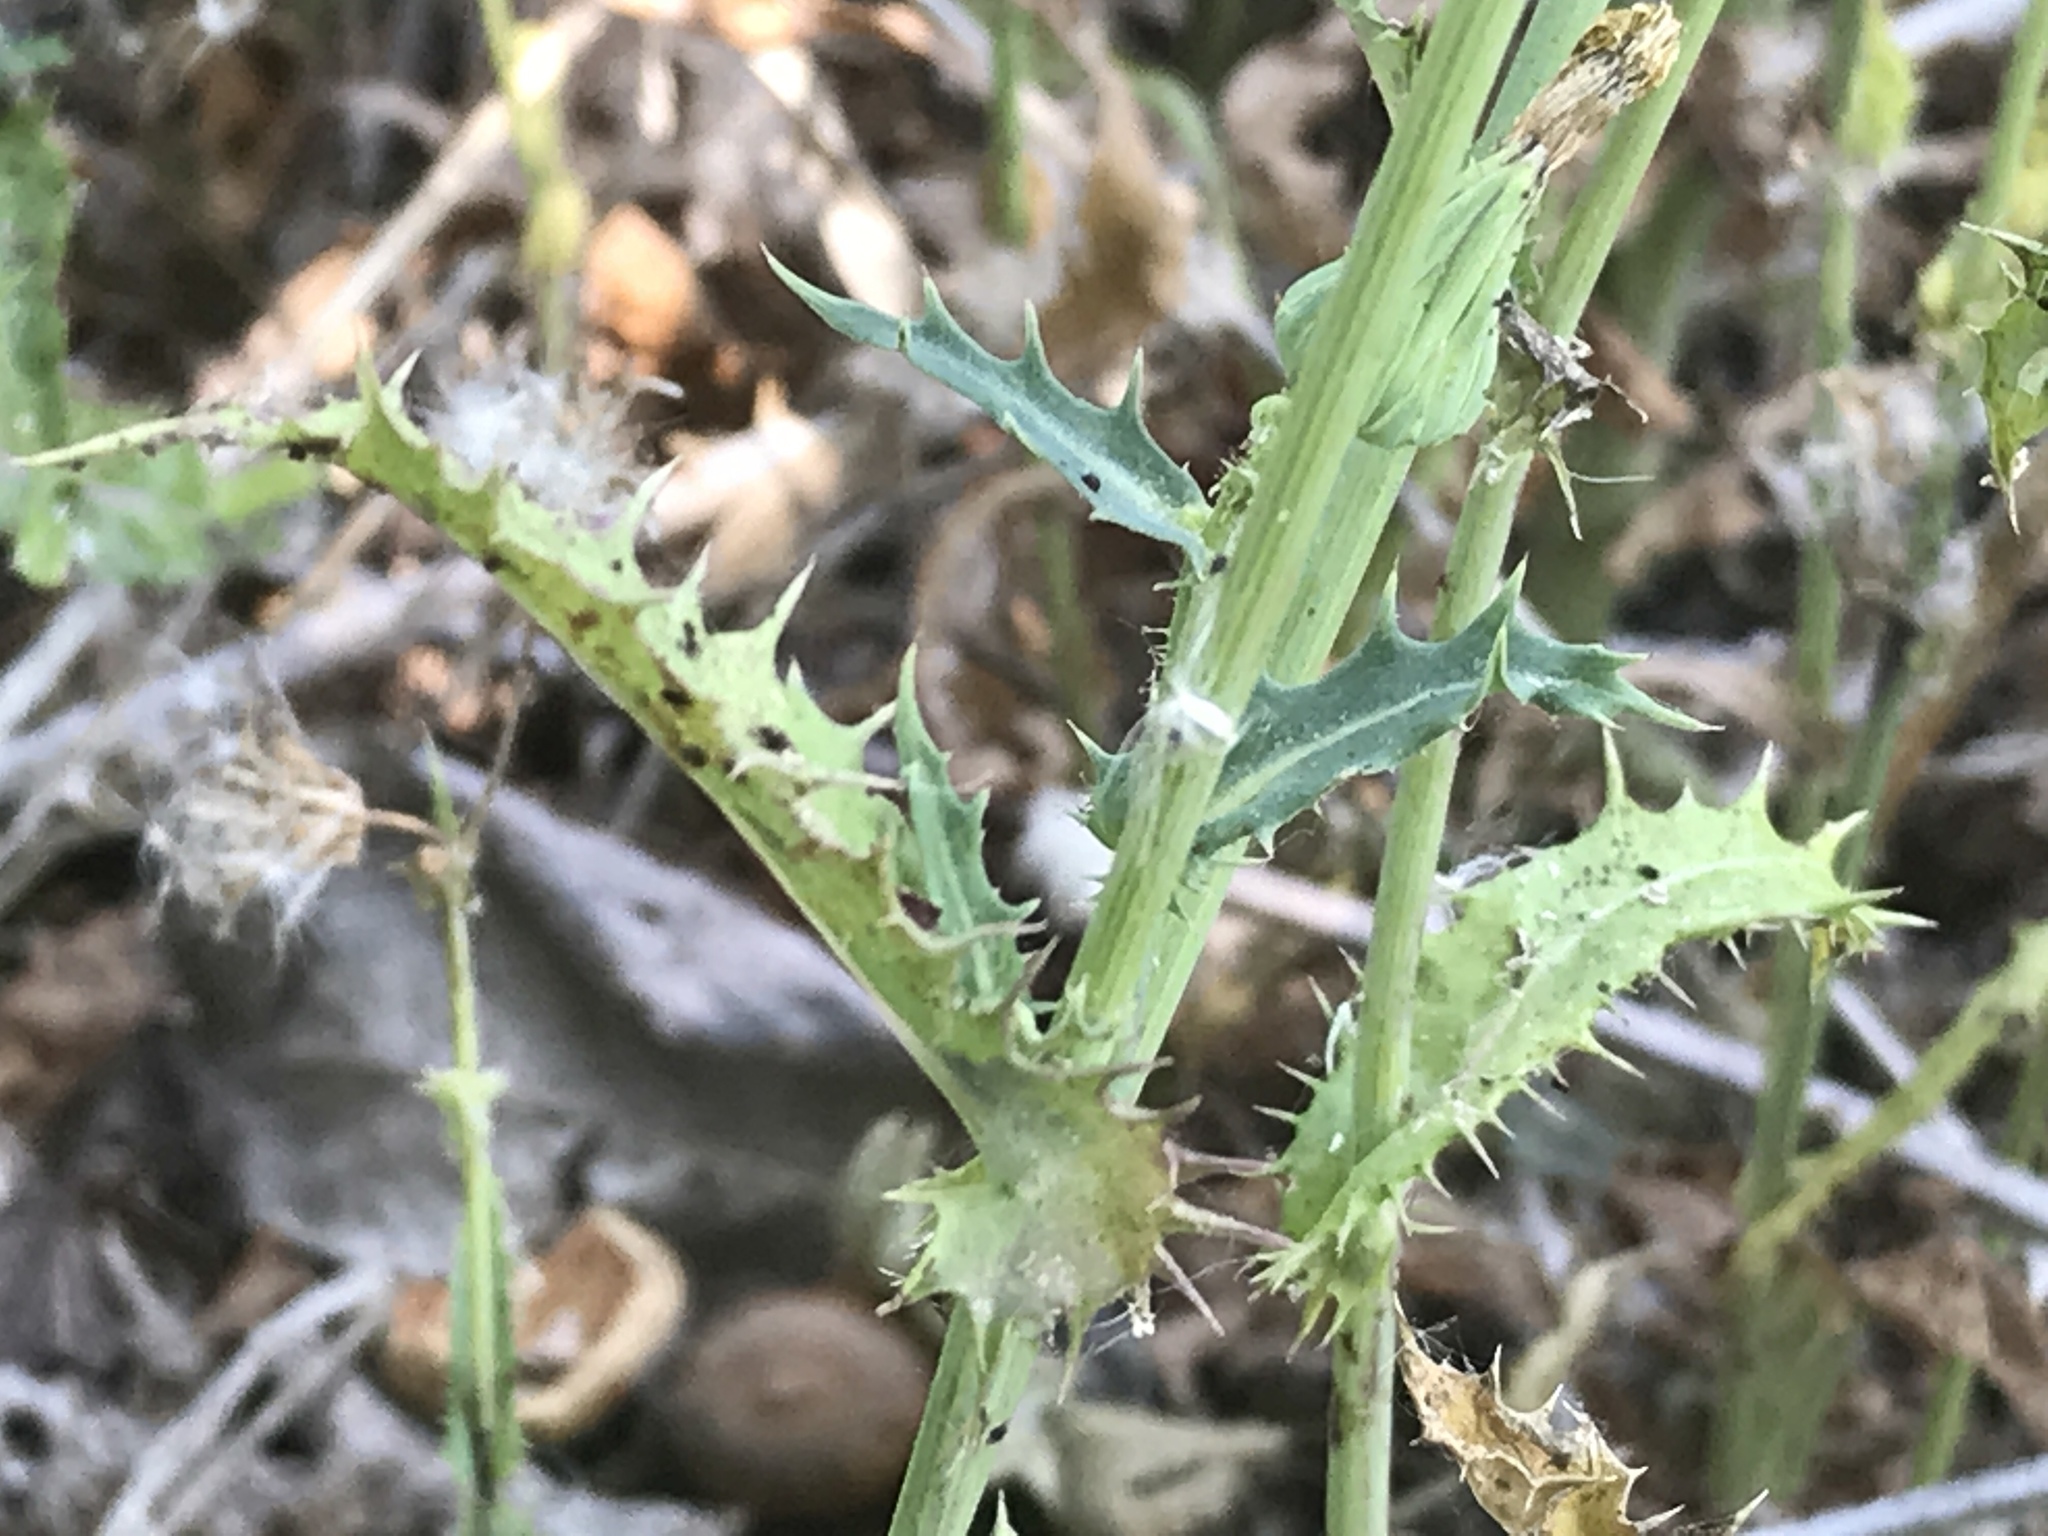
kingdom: Plantae
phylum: Tracheophyta
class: Magnoliopsida
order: Asterales
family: Asteraceae
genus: Sonchus
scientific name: Sonchus asper
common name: Prickly sow-thistle
